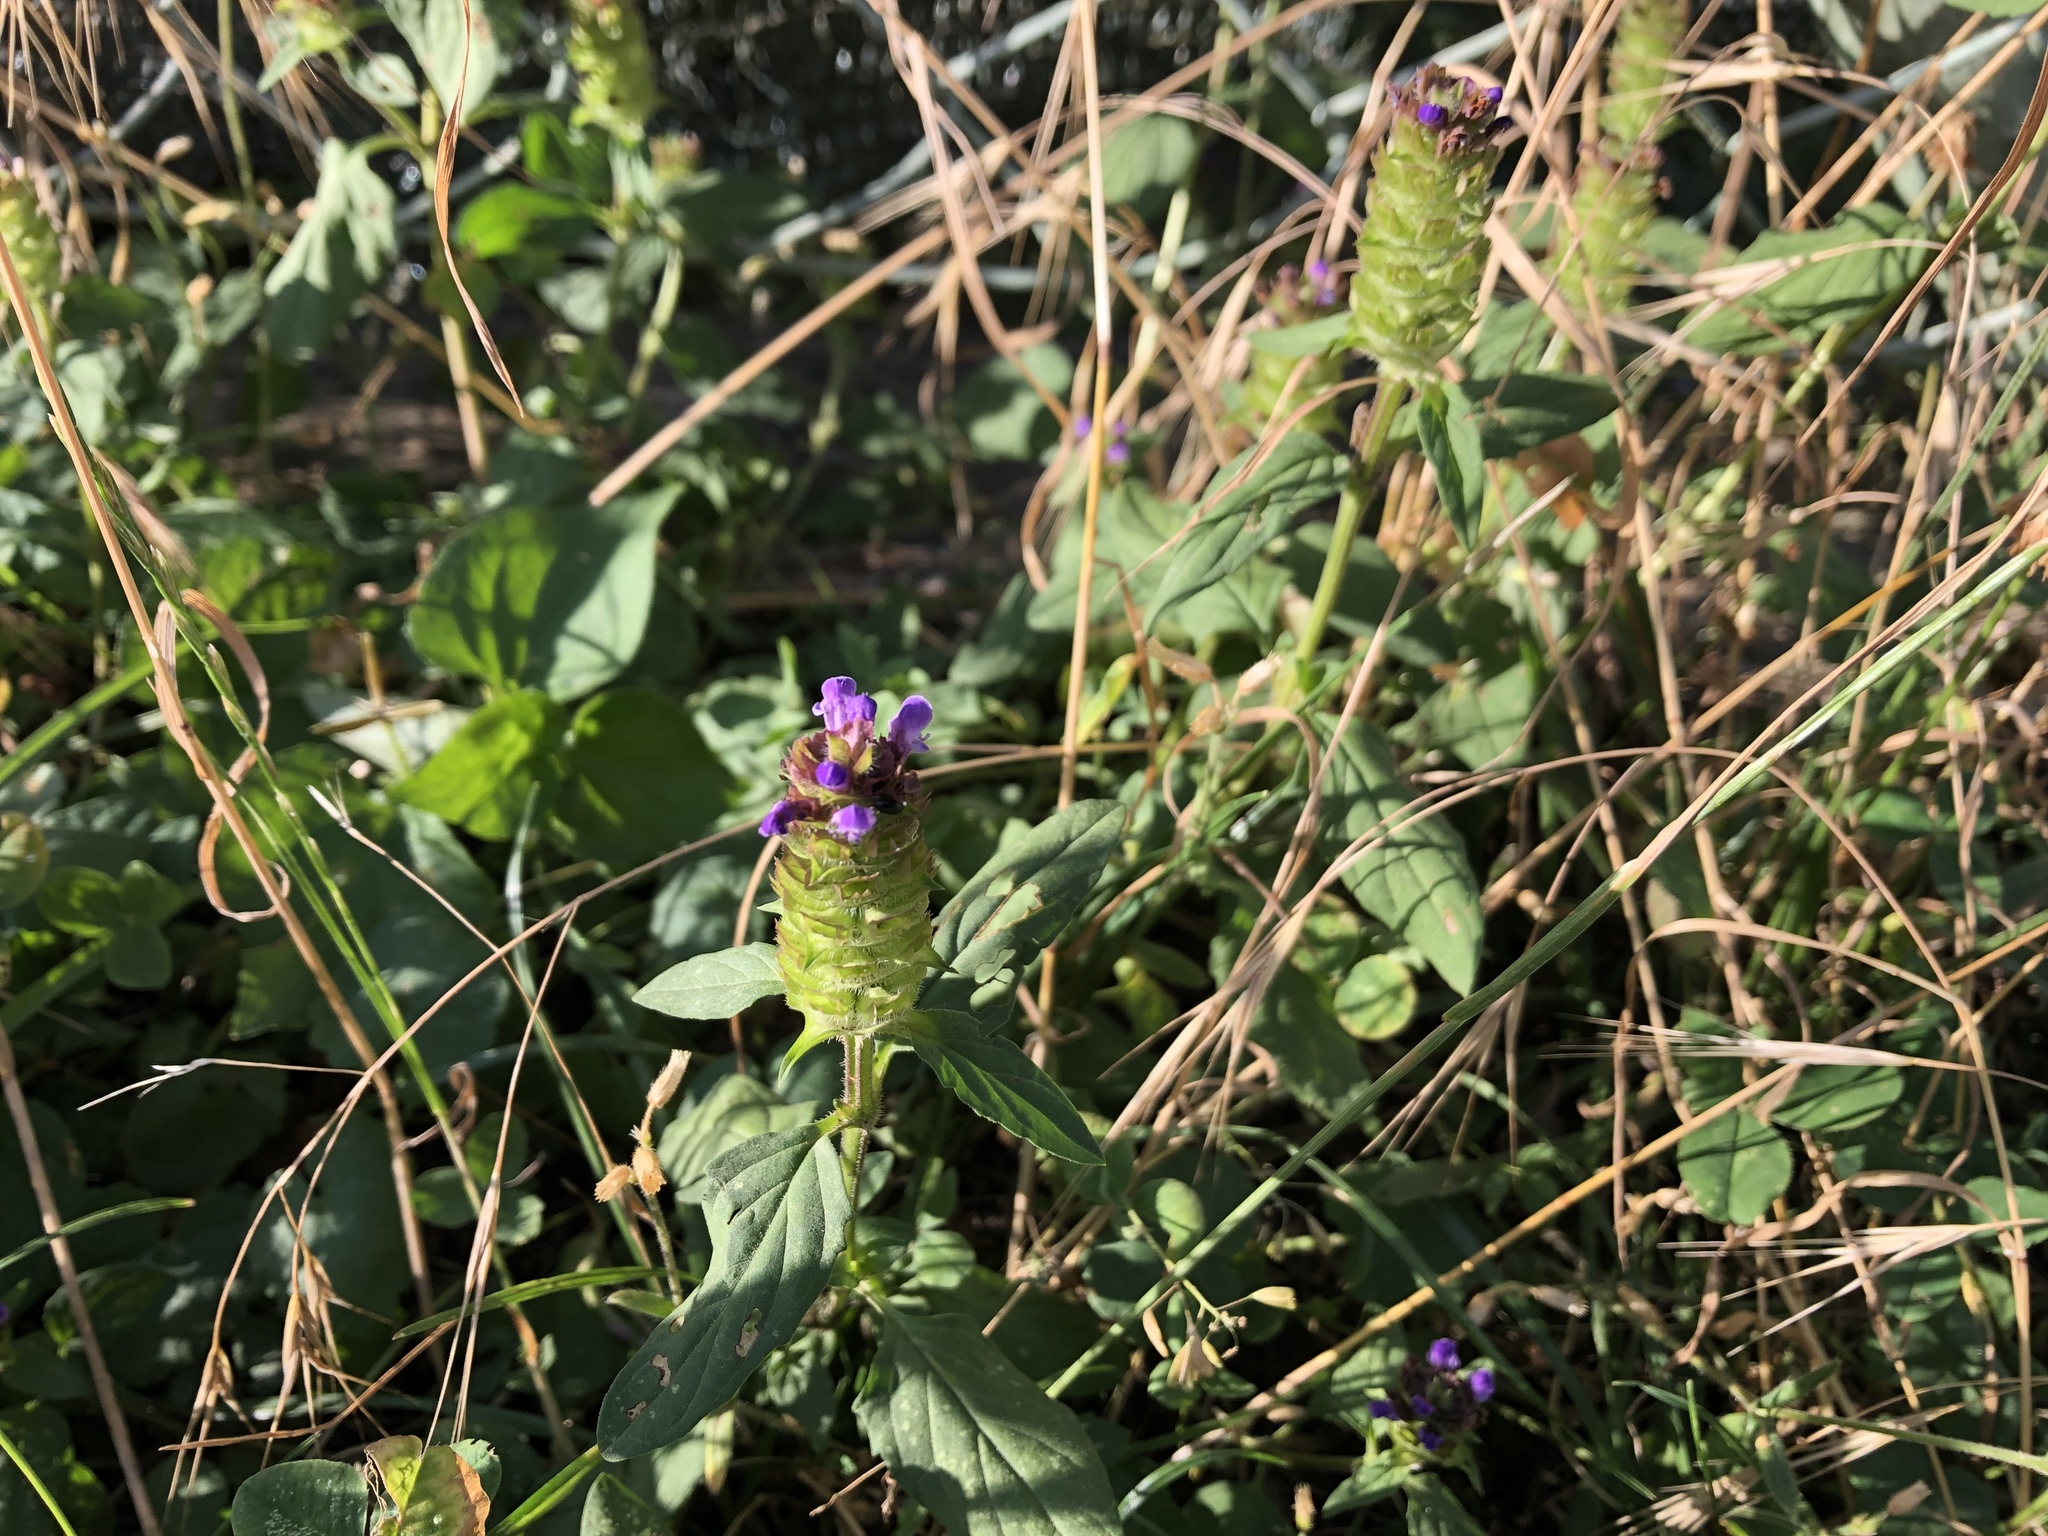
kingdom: Plantae
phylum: Tracheophyta
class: Magnoliopsida
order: Lamiales
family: Lamiaceae
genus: Prunella
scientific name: Prunella vulgaris
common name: Heal-all
